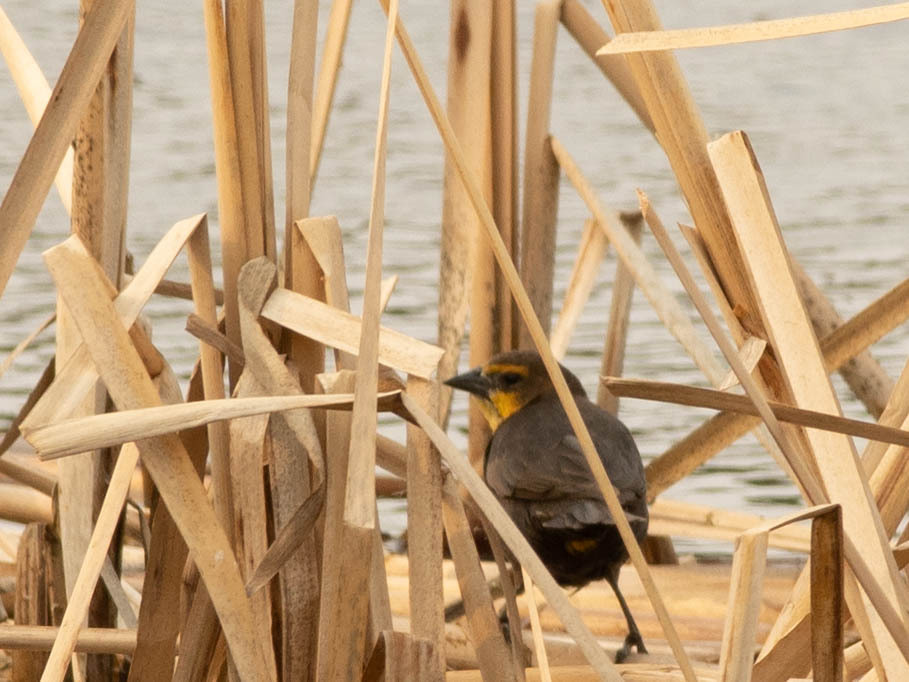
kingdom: Animalia
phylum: Chordata
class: Aves
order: Passeriformes
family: Icteridae
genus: Xanthocephalus
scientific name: Xanthocephalus xanthocephalus
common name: Yellow-headed blackbird
